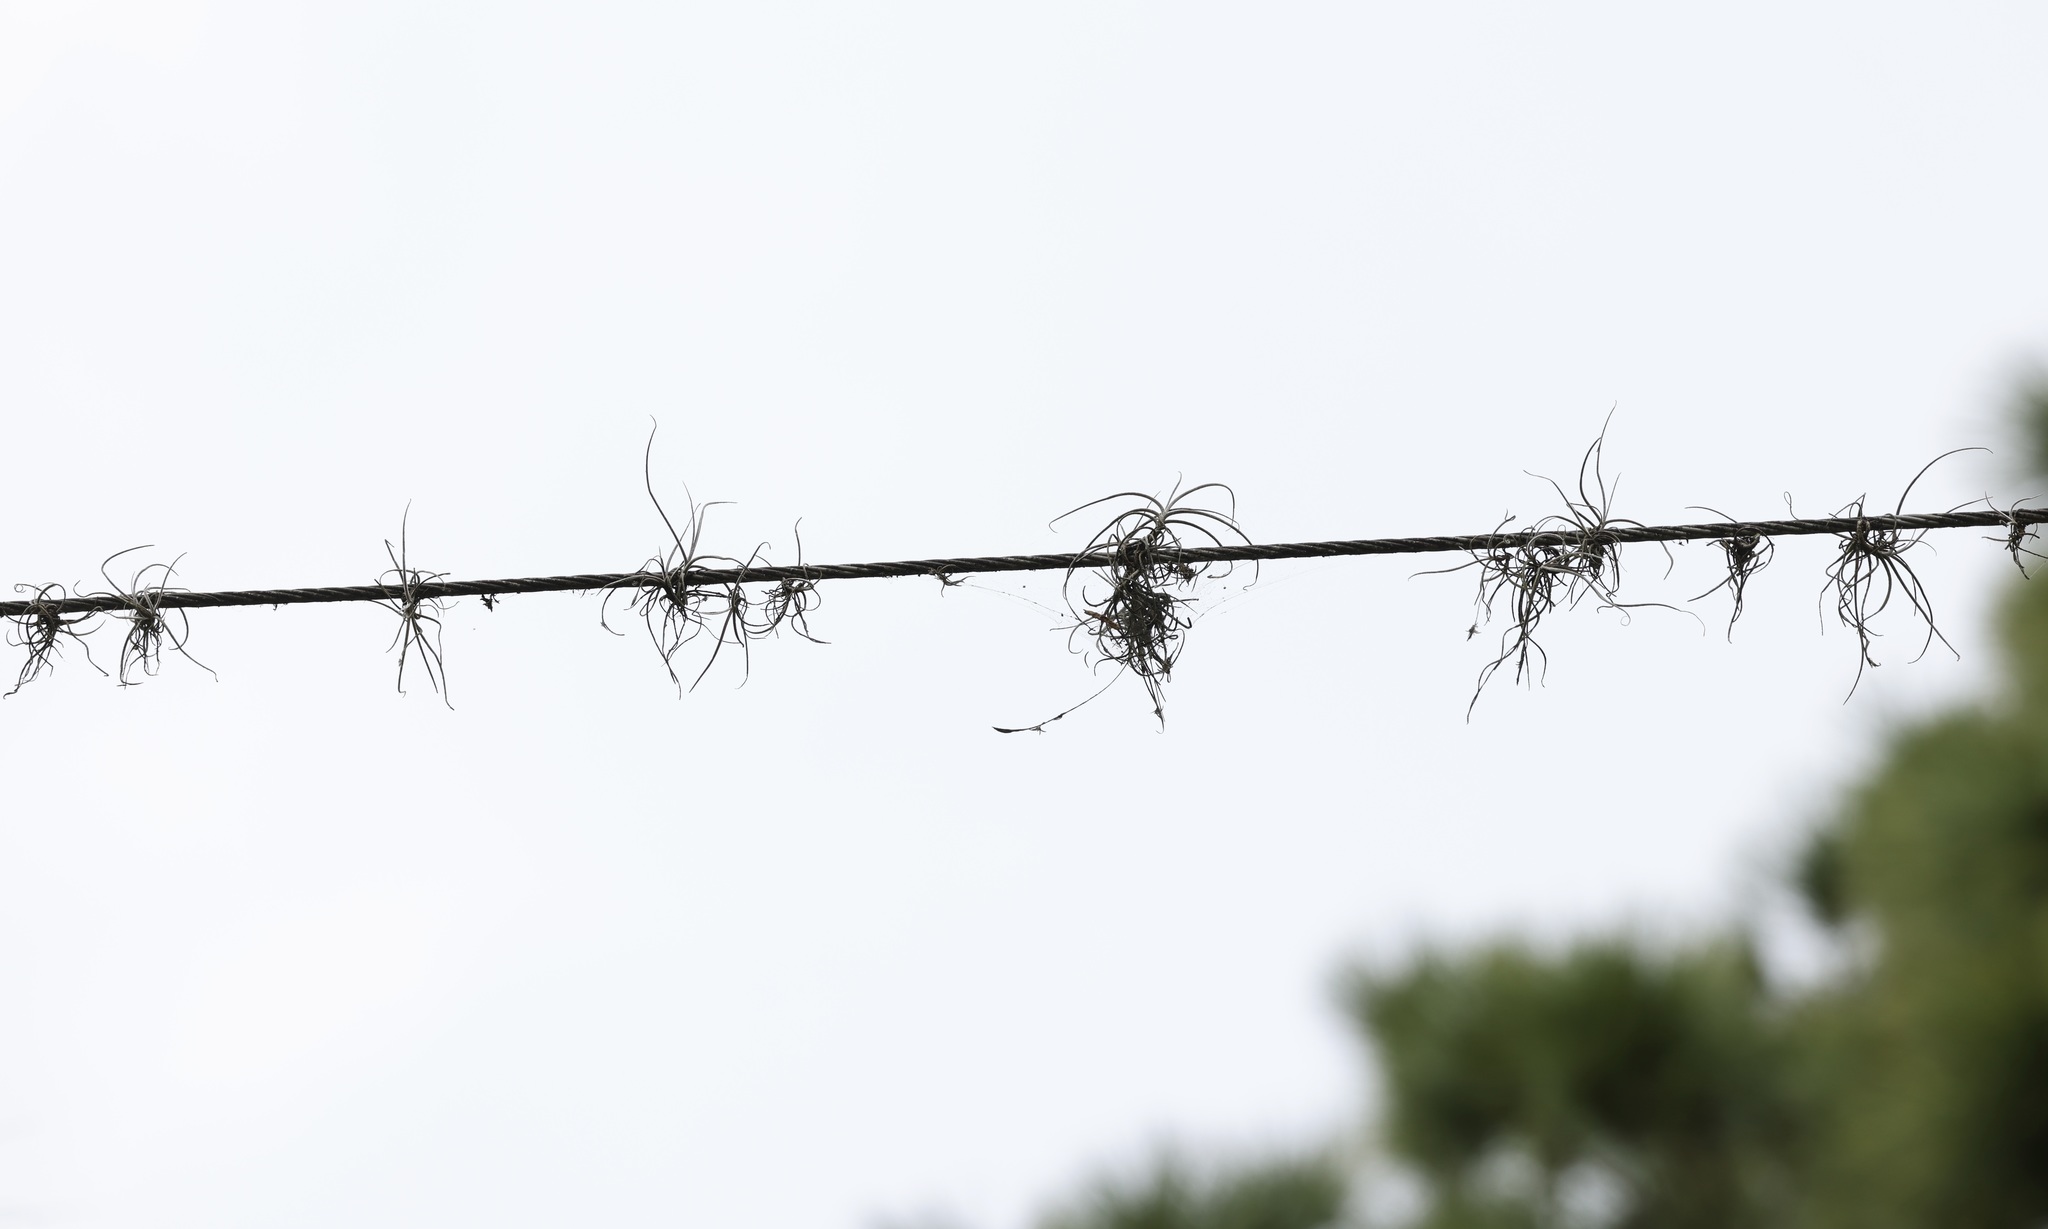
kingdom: Plantae
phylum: Tracheophyta
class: Liliopsida
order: Poales
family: Bromeliaceae
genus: Tillandsia
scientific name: Tillandsia recurvata
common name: Small ballmoss
